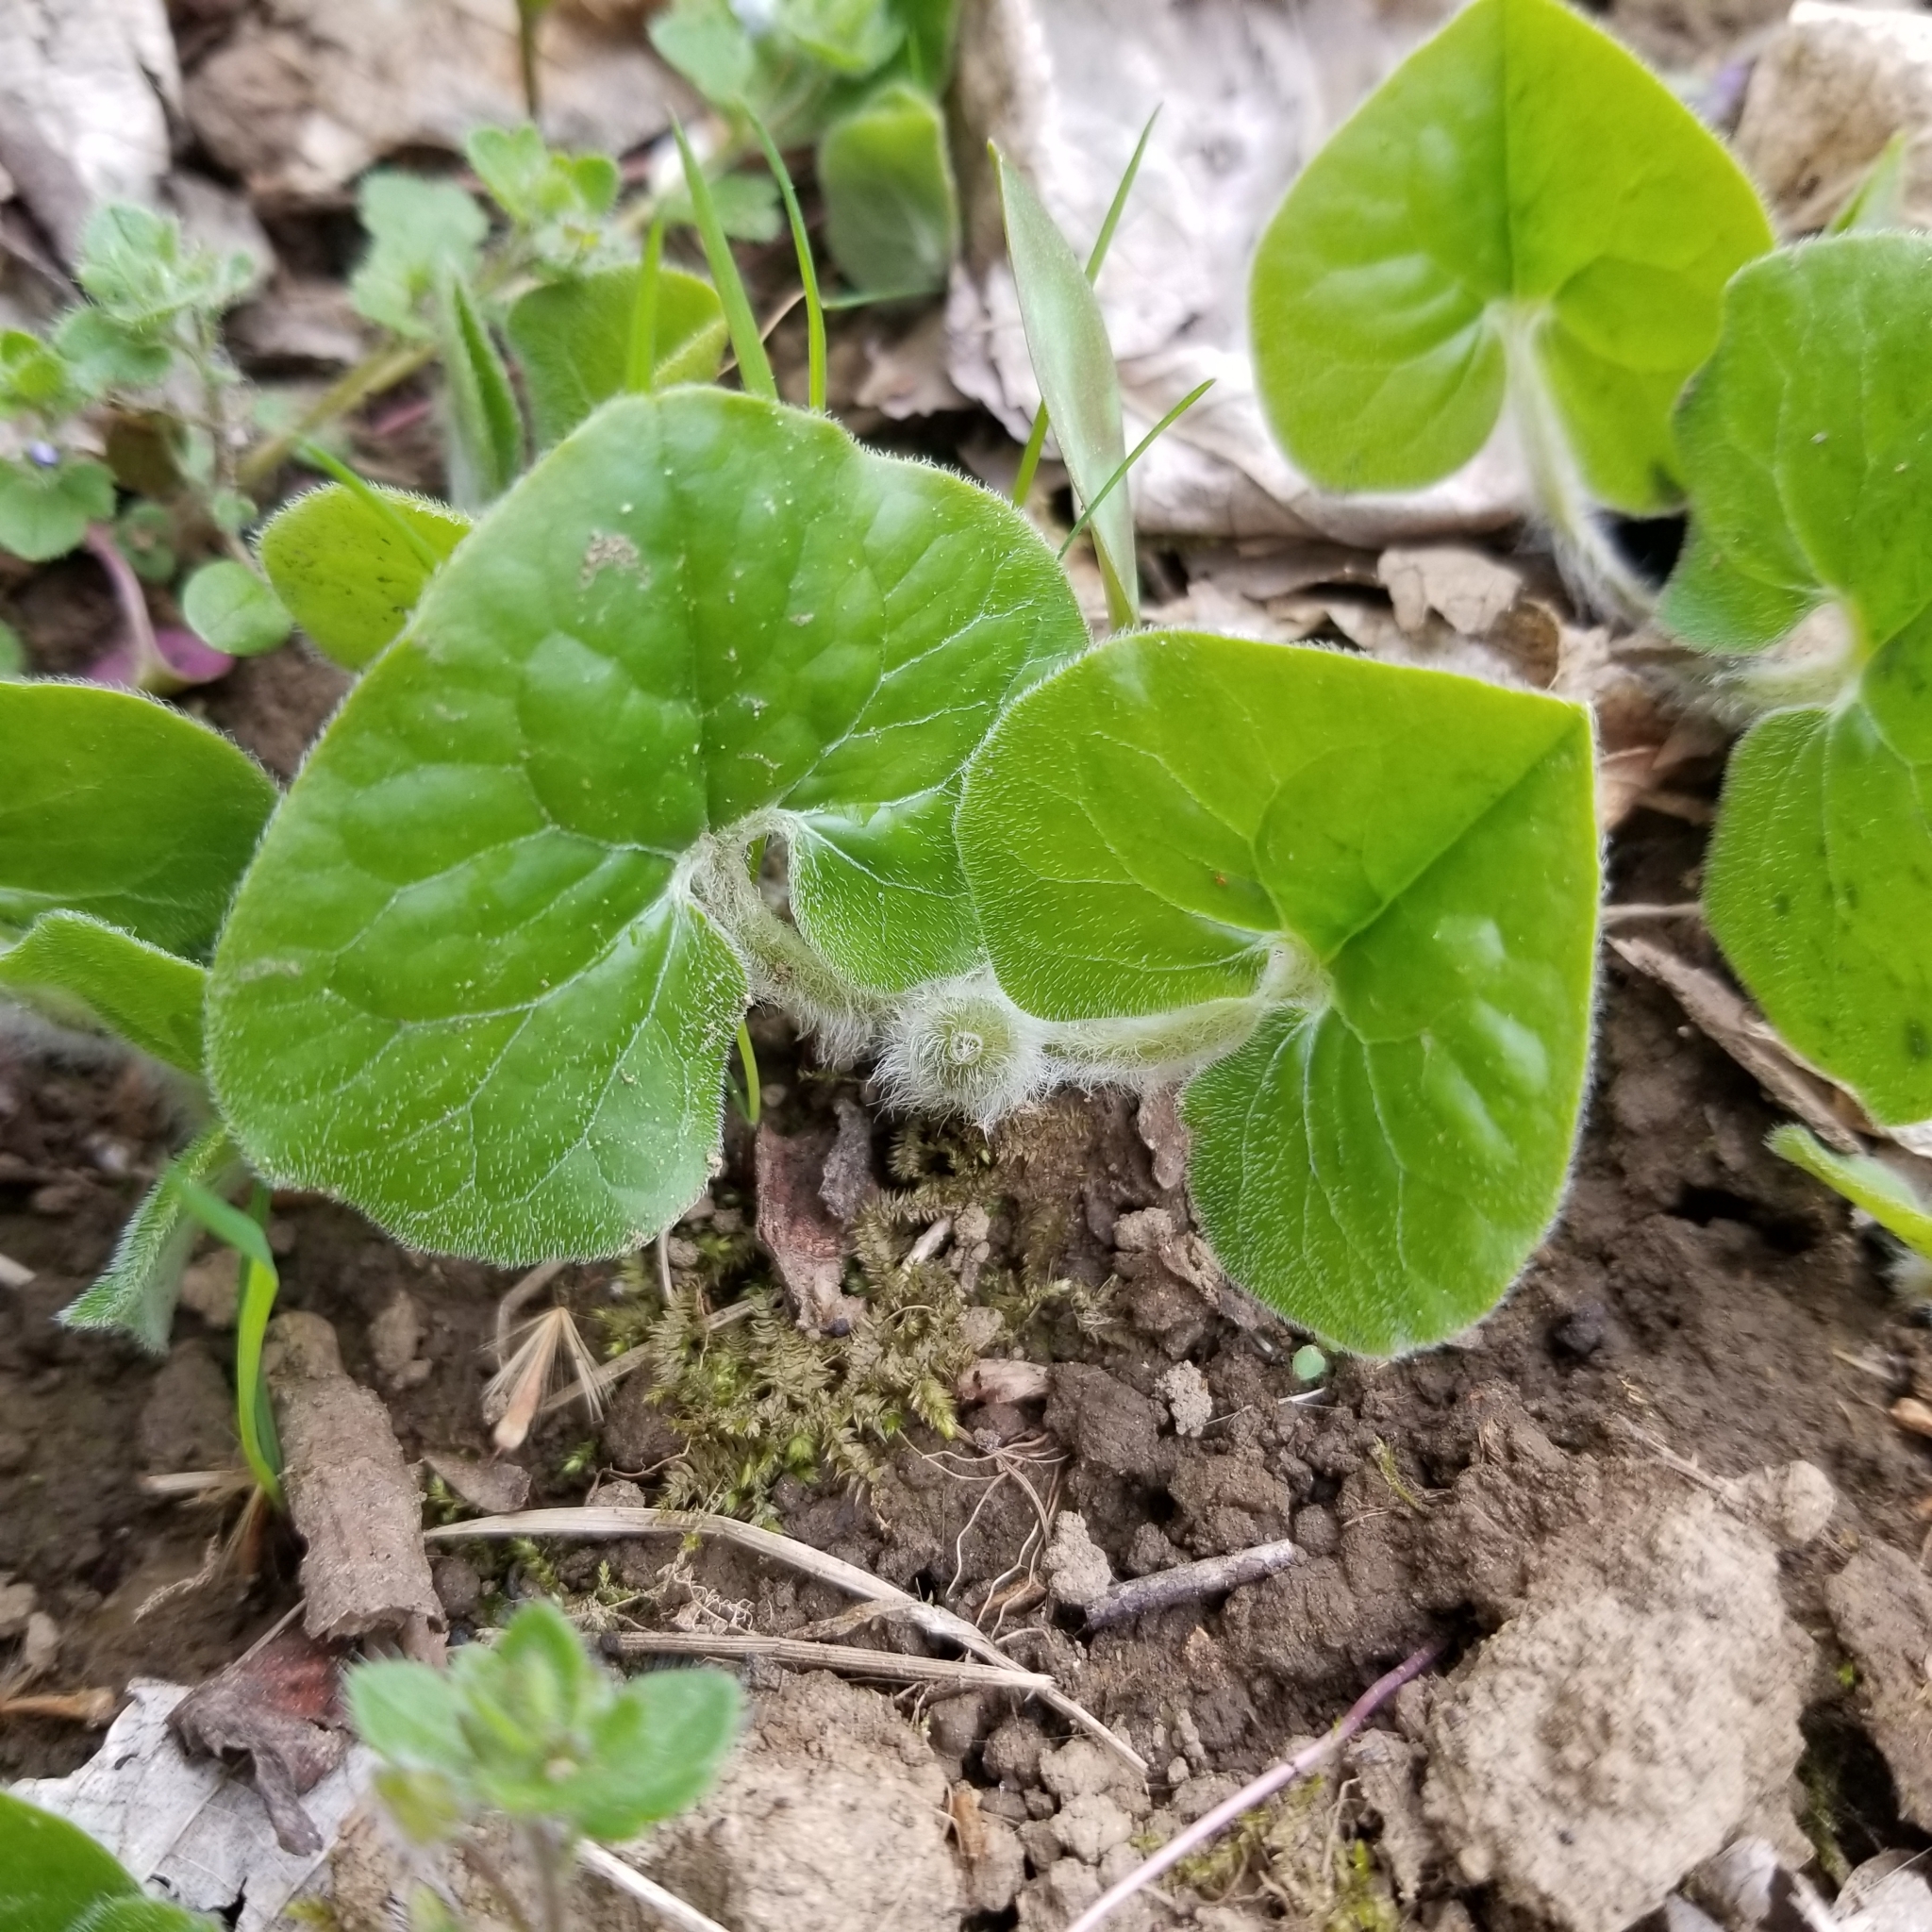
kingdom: Plantae
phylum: Tracheophyta
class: Magnoliopsida
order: Piperales
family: Aristolochiaceae
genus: Asarum
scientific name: Asarum canadense
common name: Wild ginger
